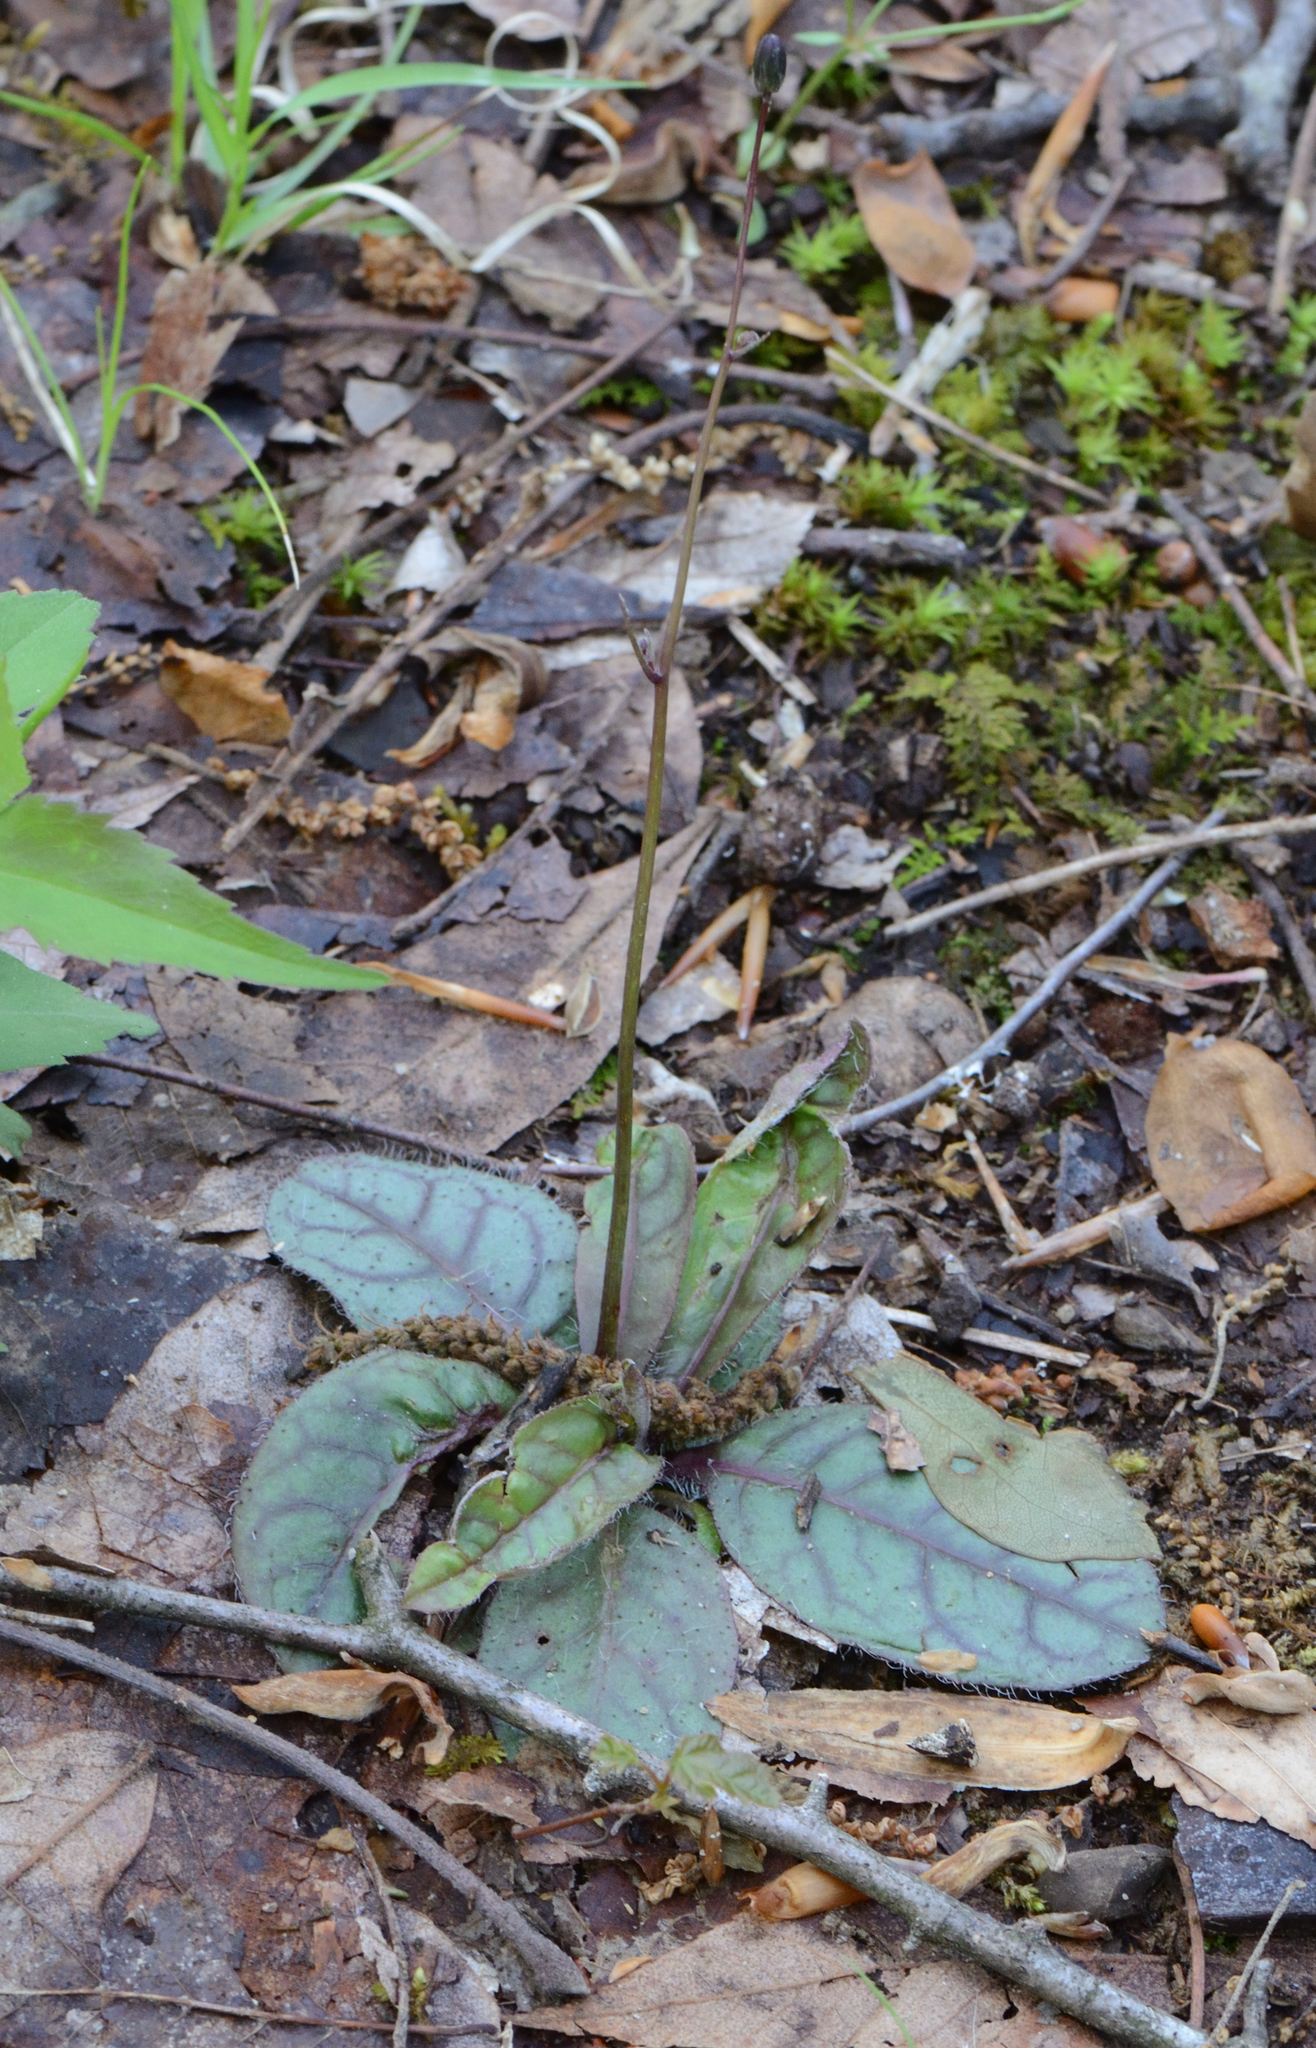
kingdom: Plantae
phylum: Tracheophyta
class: Magnoliopsida
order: Asterales
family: Asteraceae
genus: Hieracium
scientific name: Hieracium venosum
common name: Rattlesnake hawkweed
